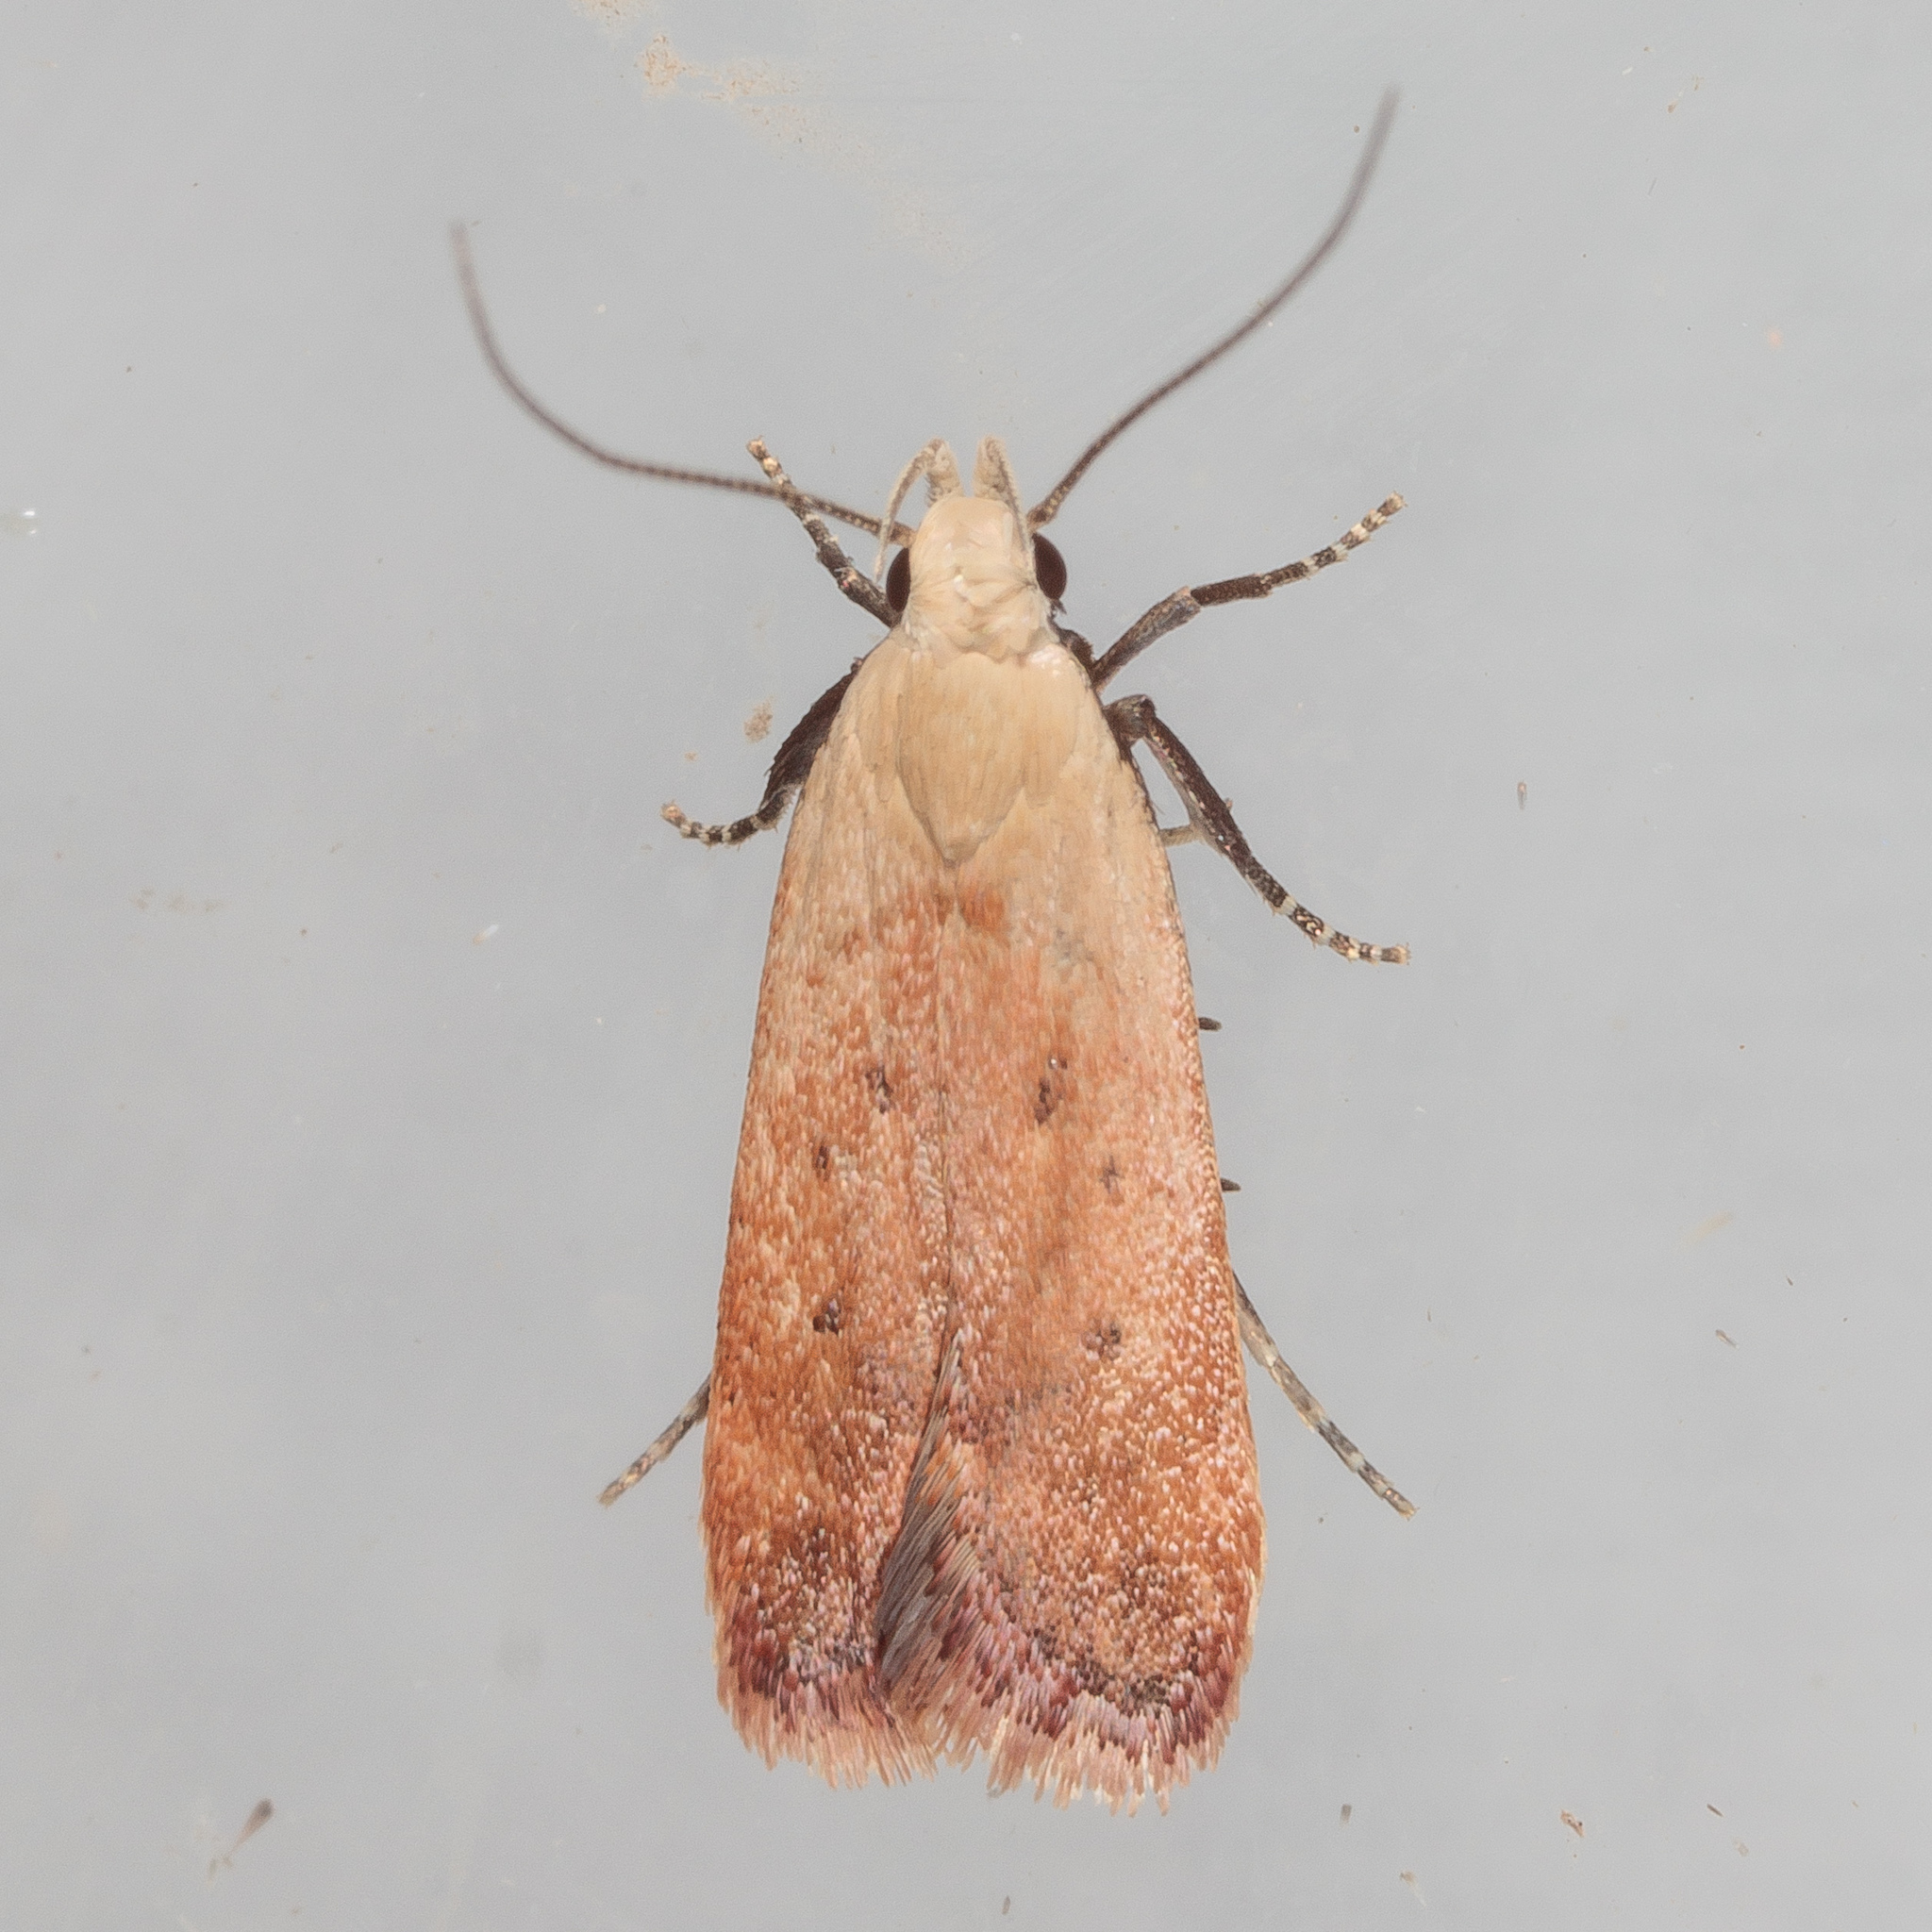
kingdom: Animalia
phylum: Arthropoda
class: Insecta
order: Lepidoptera
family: Gelechiidae
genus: Anacampsis
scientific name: Anacampsis fullonella
